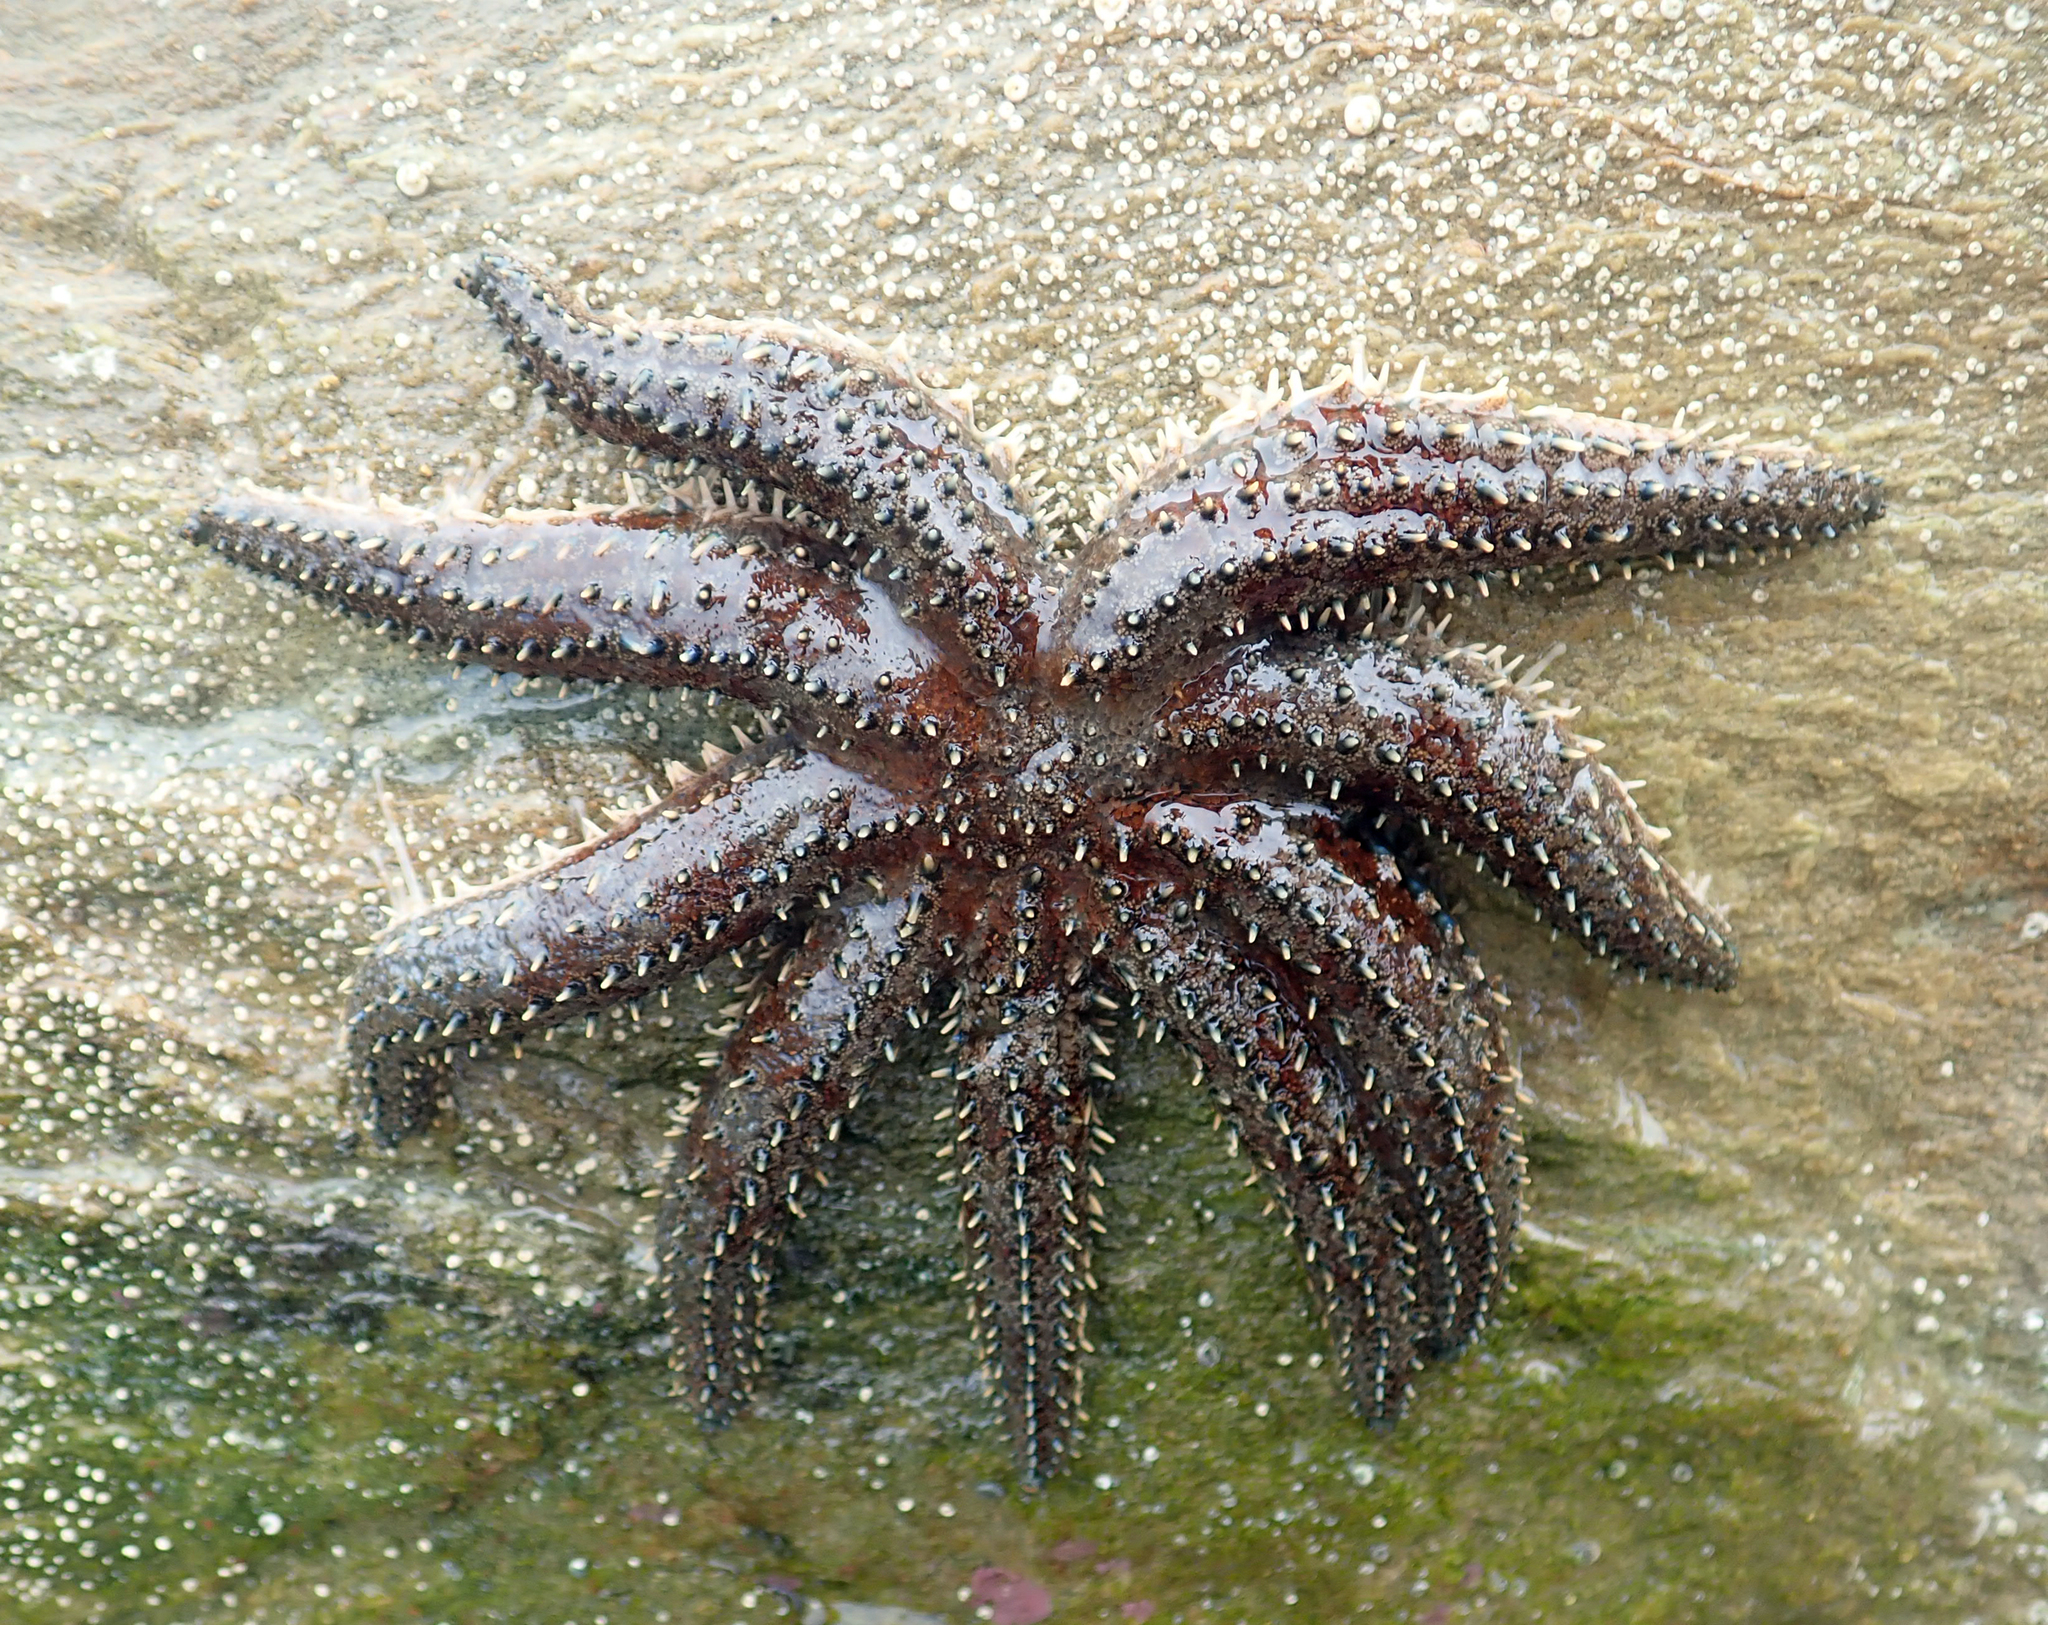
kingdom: Animalia
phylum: Echinodermata
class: Asteroidea
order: Forcipulatida
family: Asteriidae
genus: Coscinasterias
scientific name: Coscinasterias muricata
